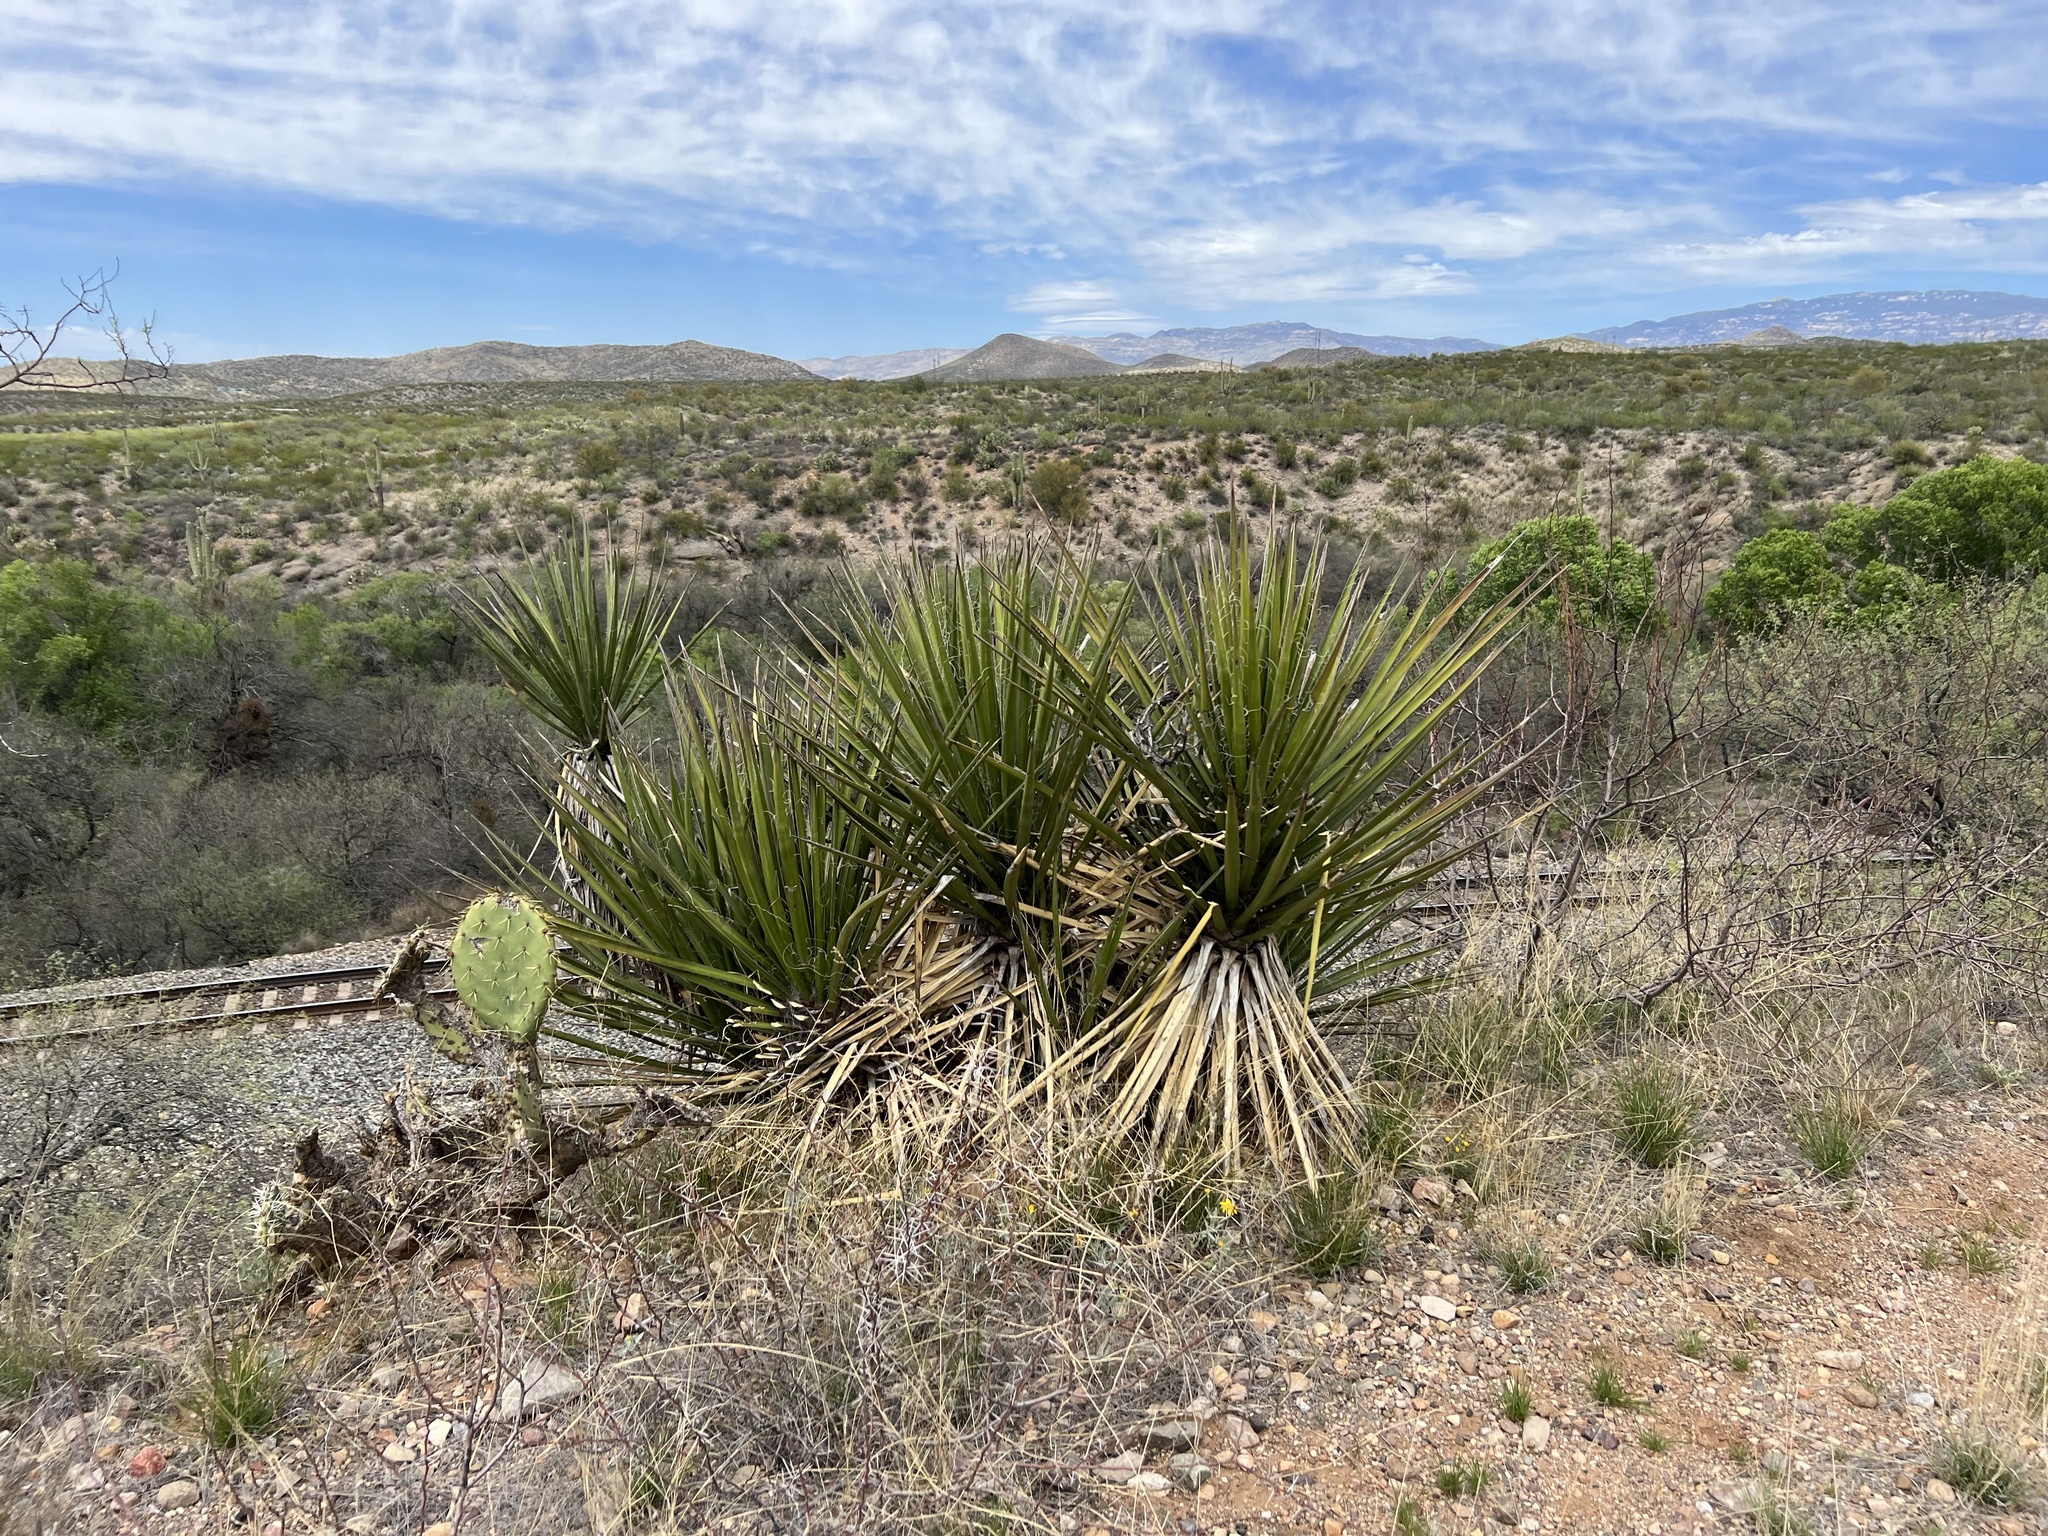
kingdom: Plantae
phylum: Tracheophyta
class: Liliopsida
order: Asparagales
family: Asparagaceae
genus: Yucca
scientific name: Yucca baccata
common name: Banana yucca
